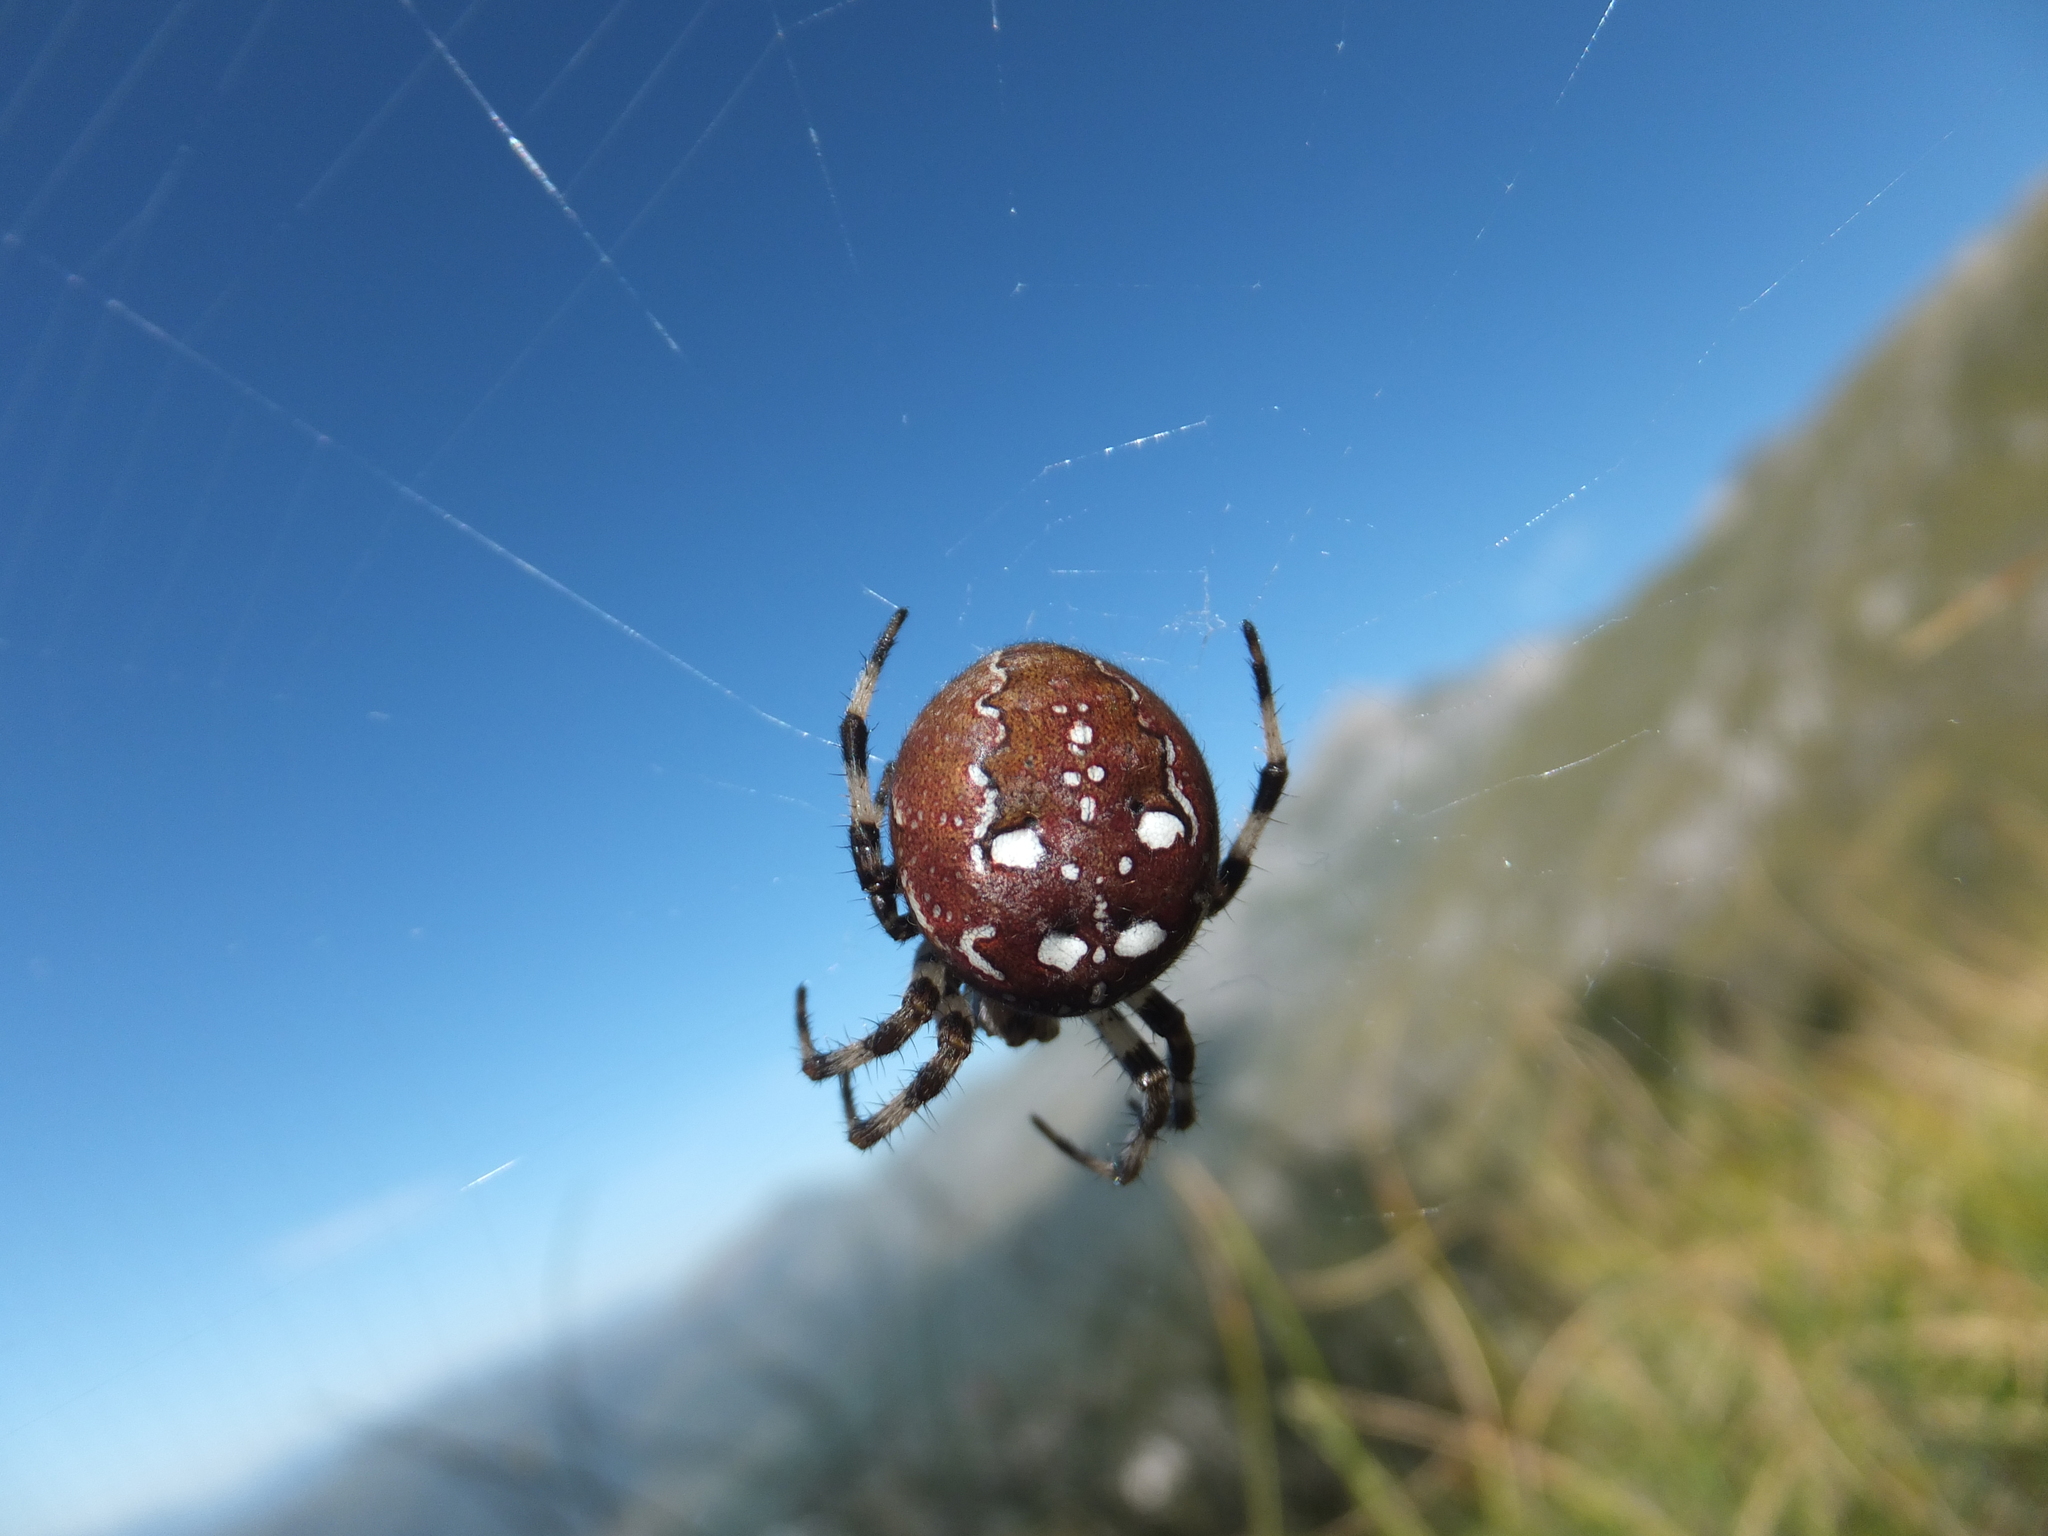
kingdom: Animalia
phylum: Arthropoda
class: Arachnida
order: Araneae
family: Araneidae
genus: Araneus
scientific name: Araneus quadratus
